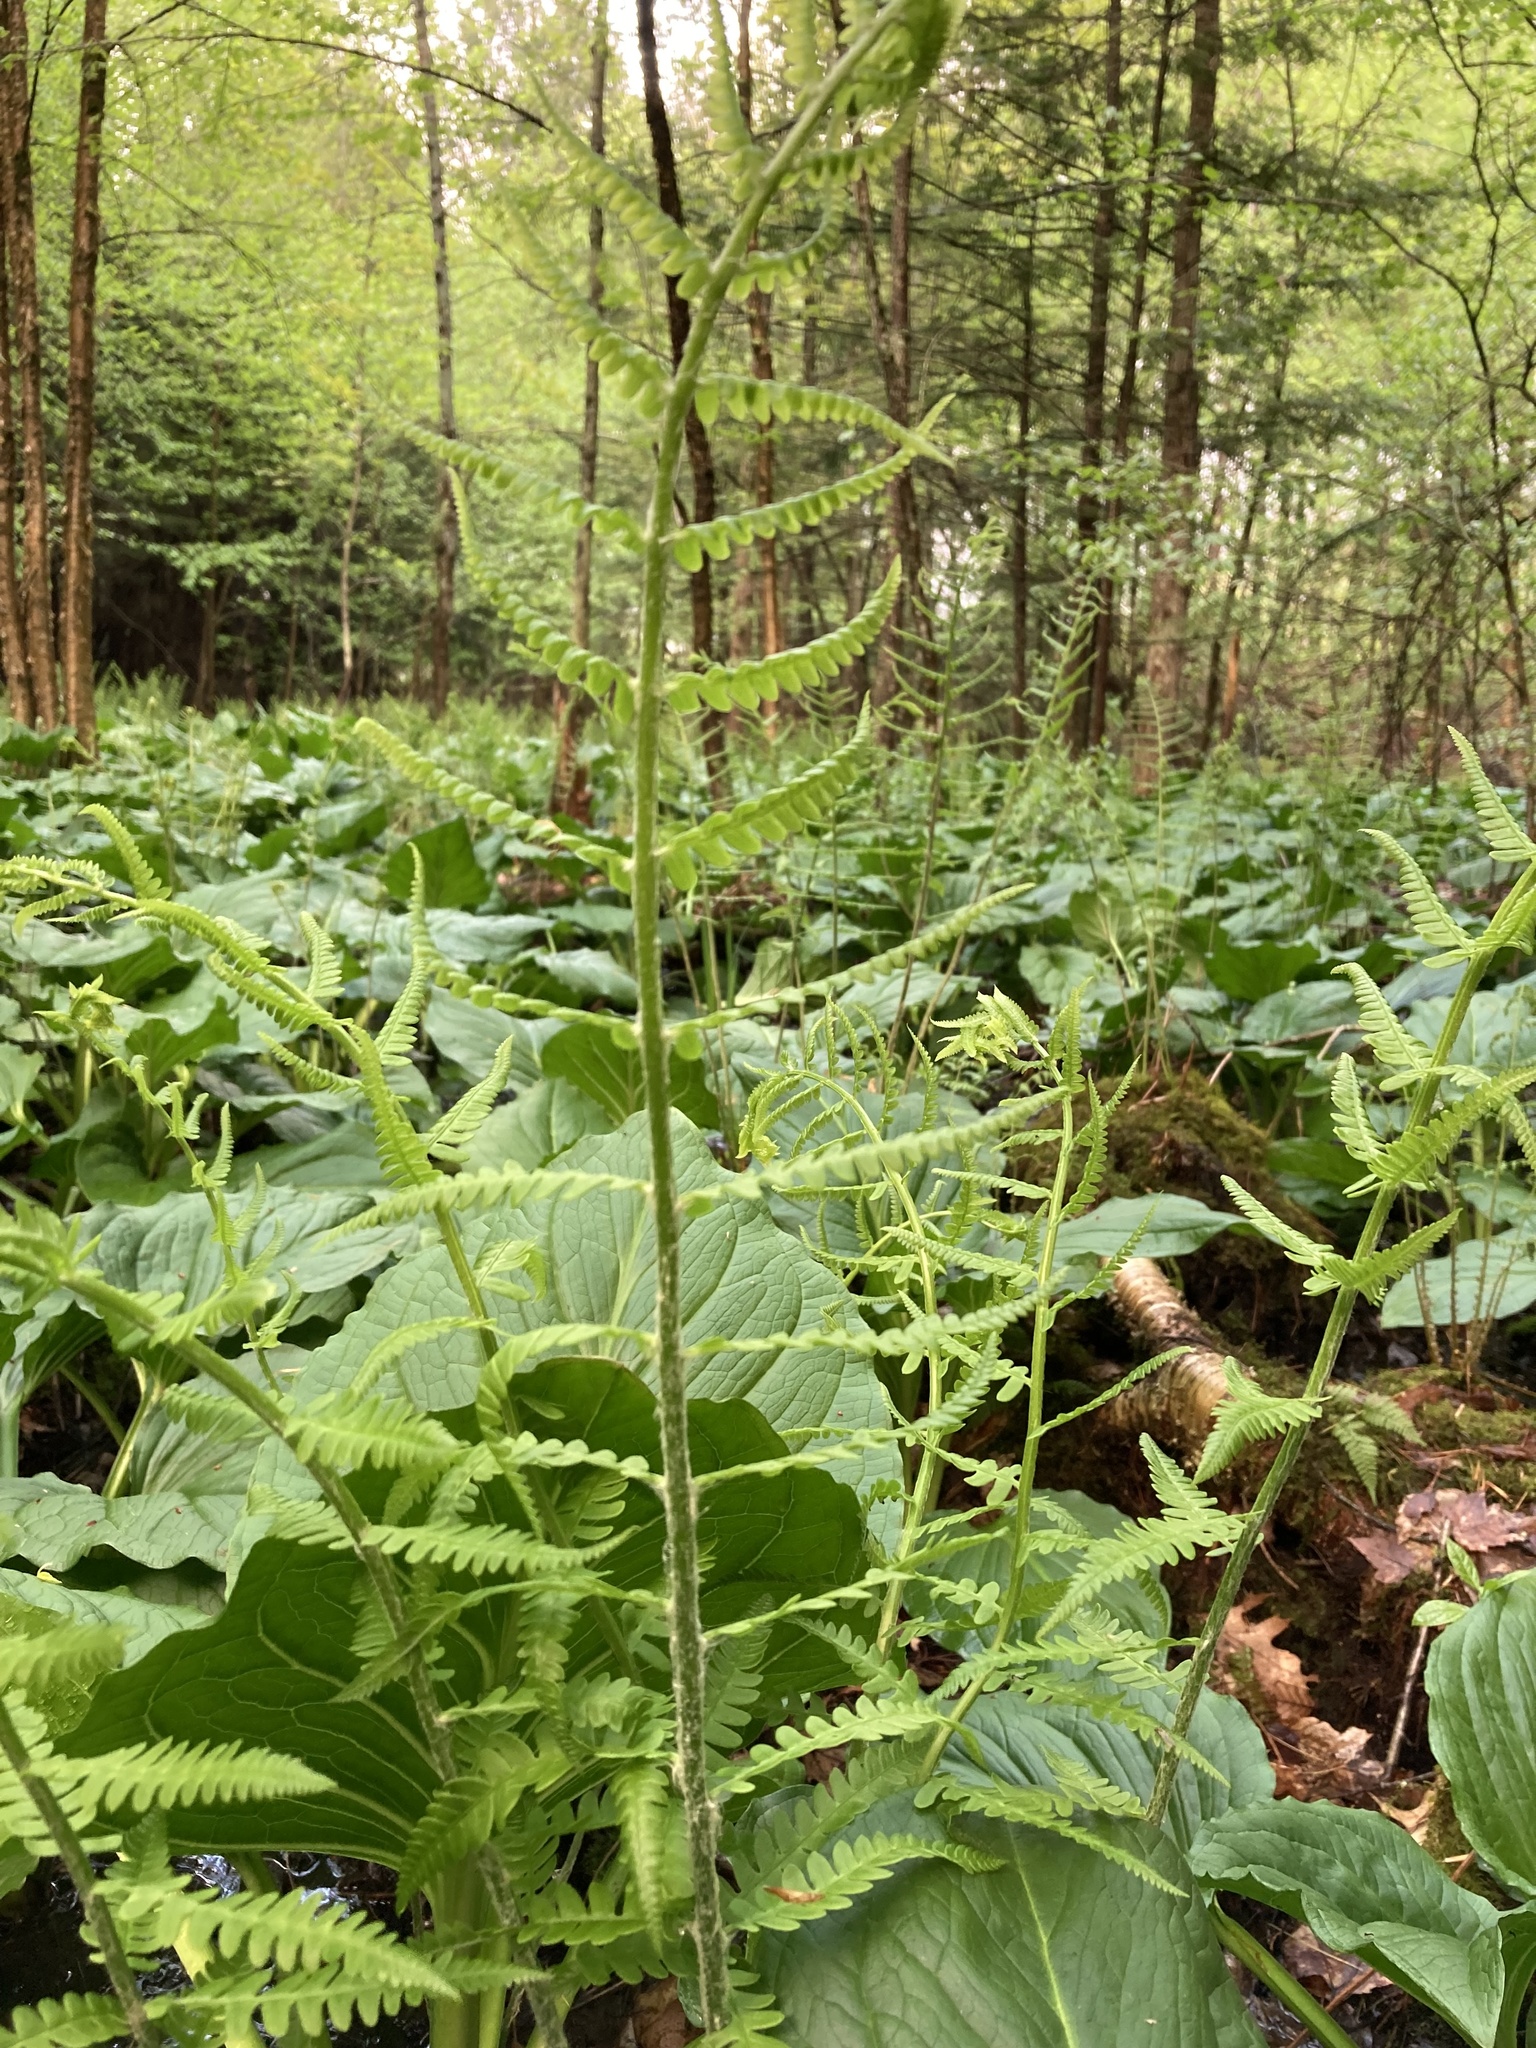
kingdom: Plantae
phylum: Tracheophyta
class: Polypodiopsida
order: Osmundales
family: Osmundaceae
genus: Osmundastrum
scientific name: Osmundastrum cinnamomeum
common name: Cinnamon fern
